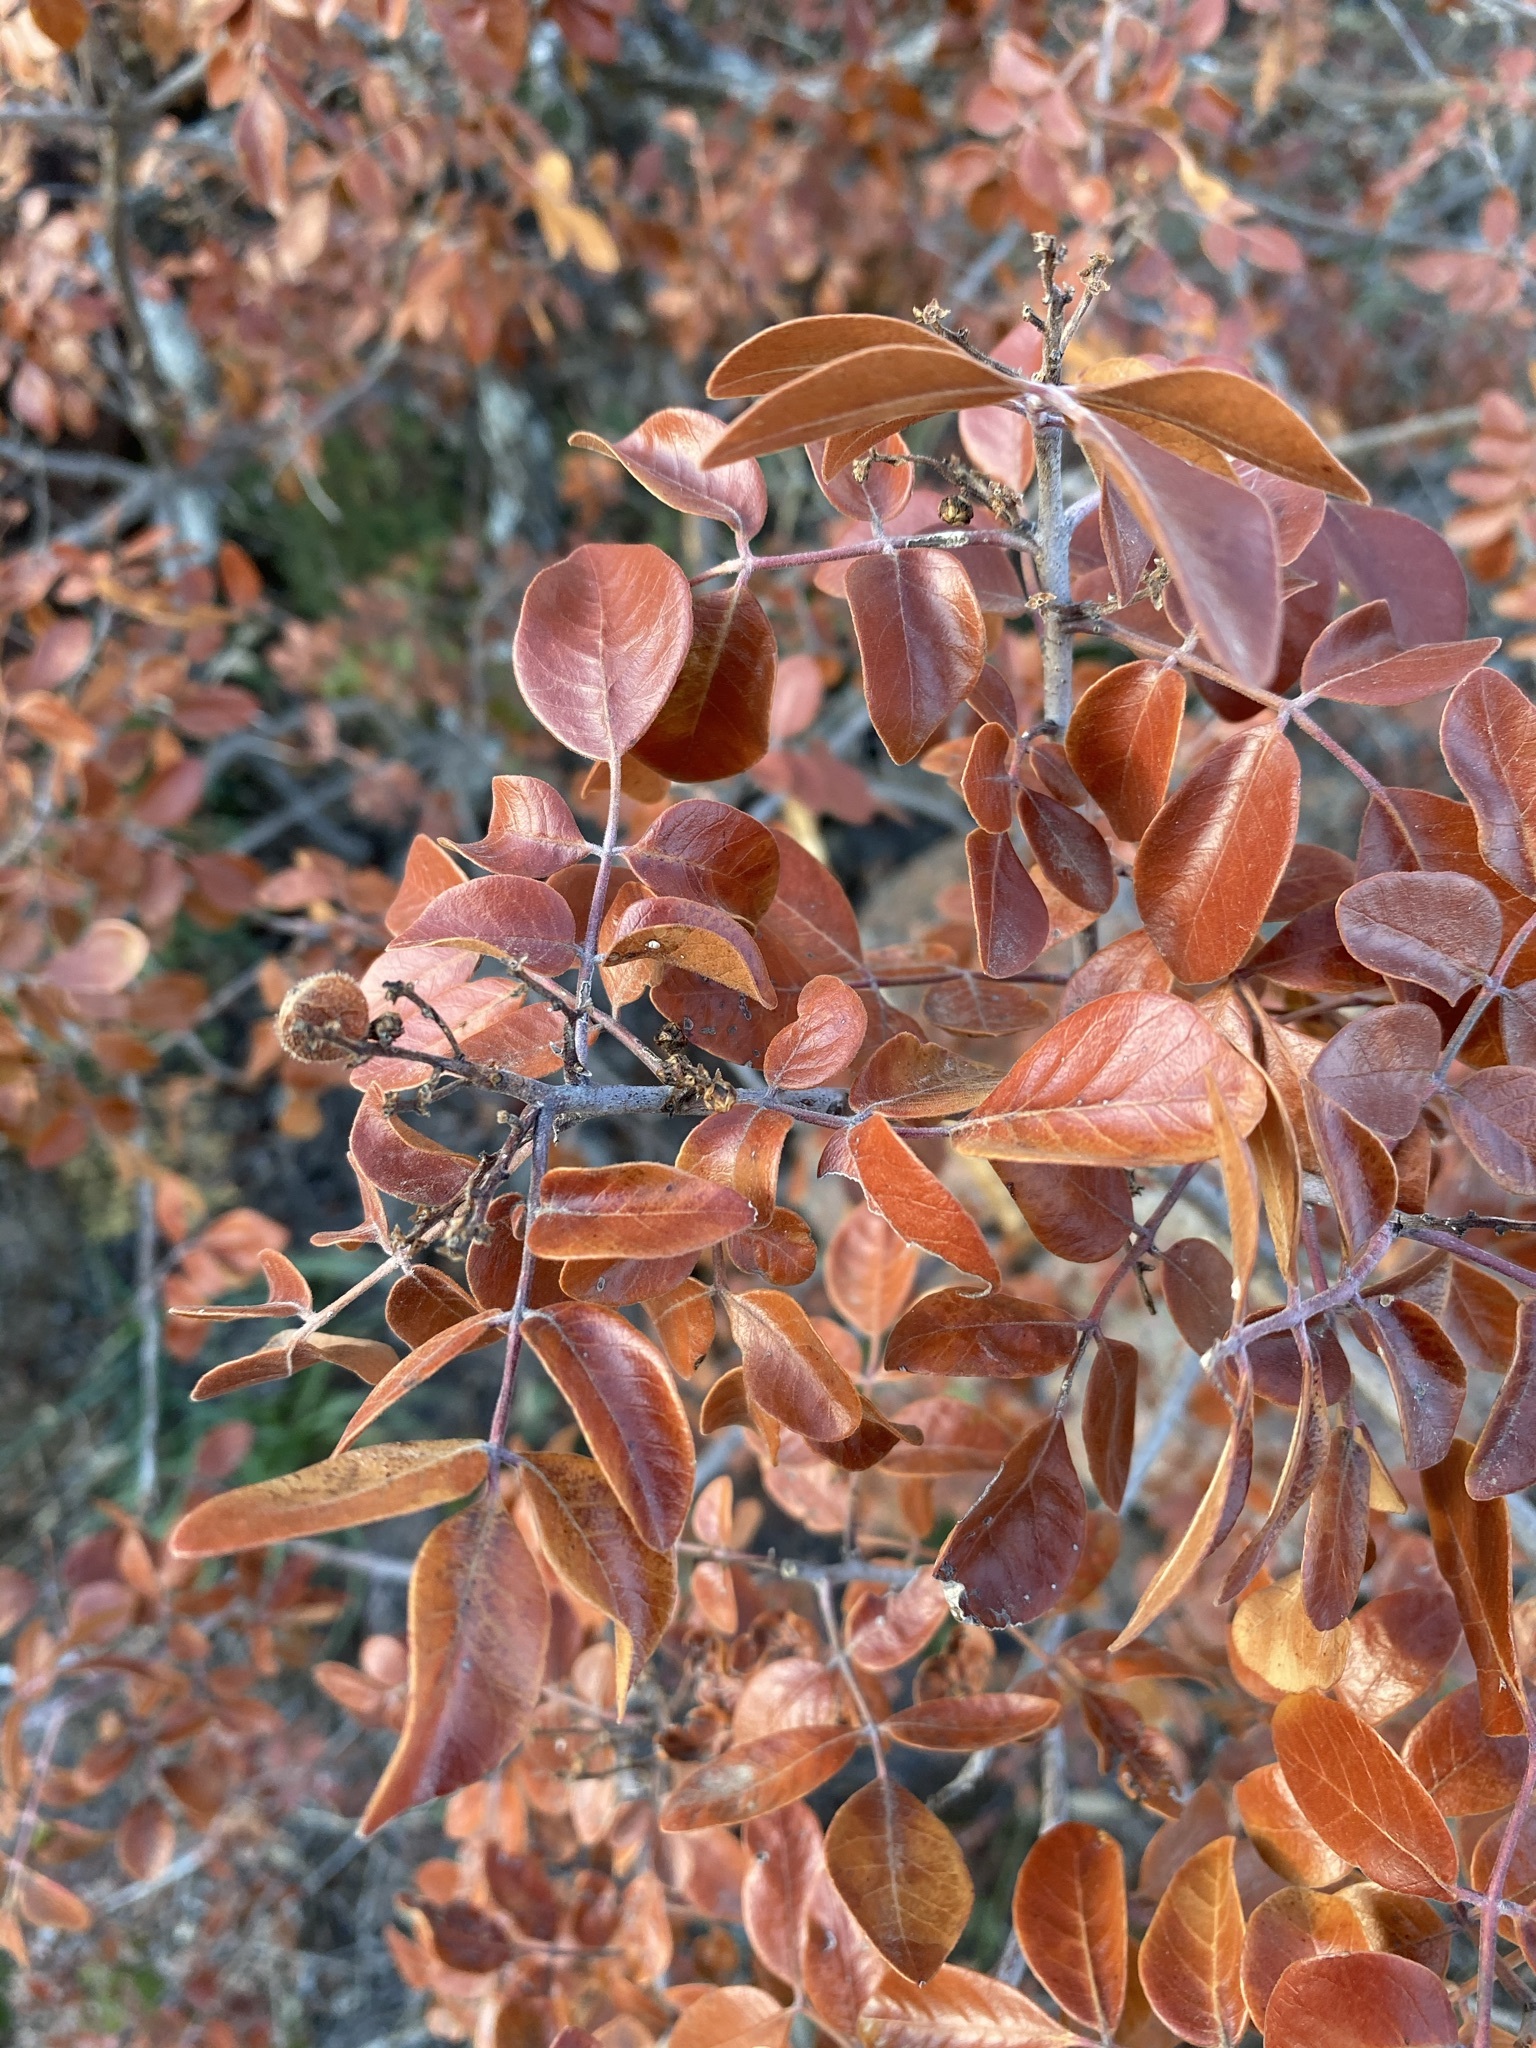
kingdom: Plantae
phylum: Tracheophyta
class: Magnoliopsida
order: Sapindales
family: Anacardiaceae
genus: Rhus
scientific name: Rhus virens
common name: Evergreen sumac
